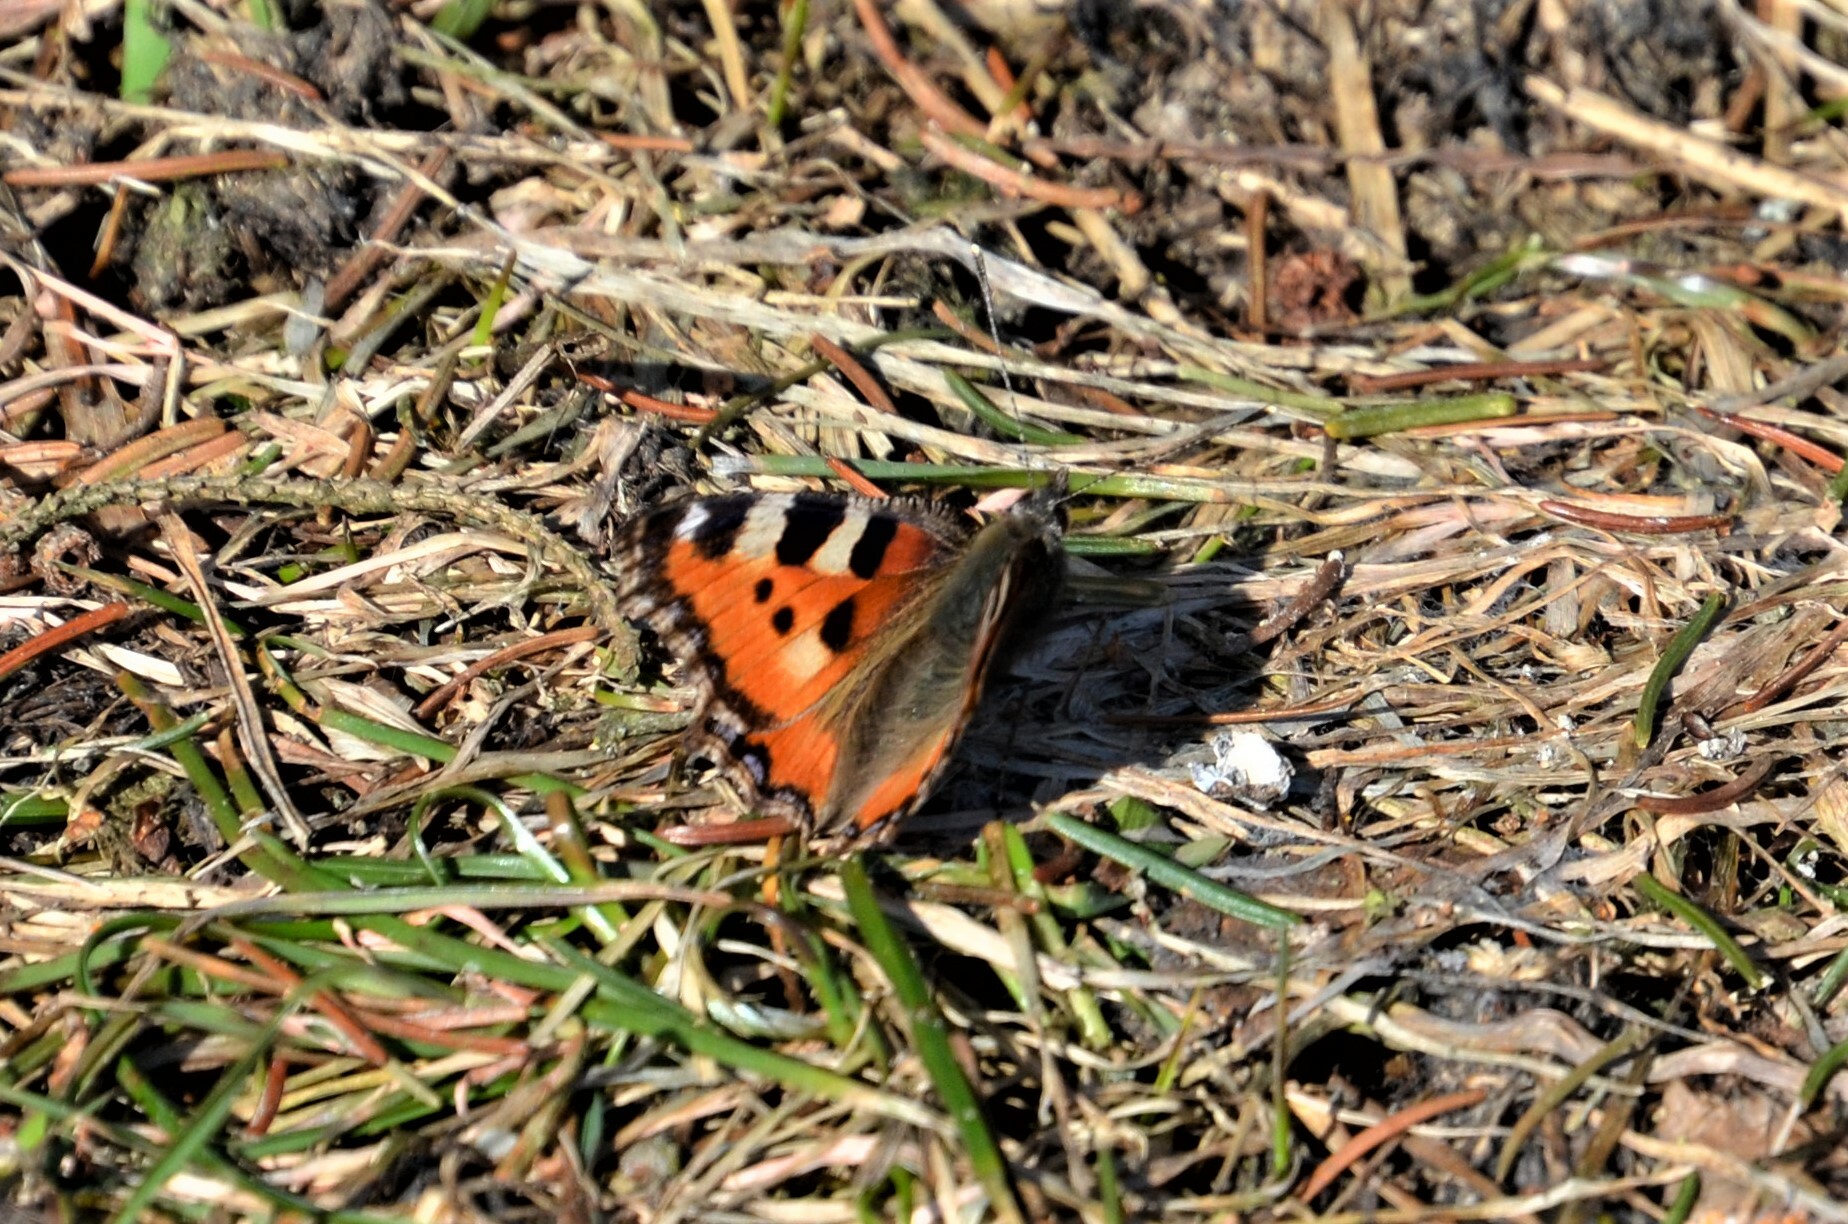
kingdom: Animalia
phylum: Arthropoda
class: Insecta
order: Lepidoptera
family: Nymphalidae
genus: Aglais
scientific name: Aglais urticae
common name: Small tortoiseshell
